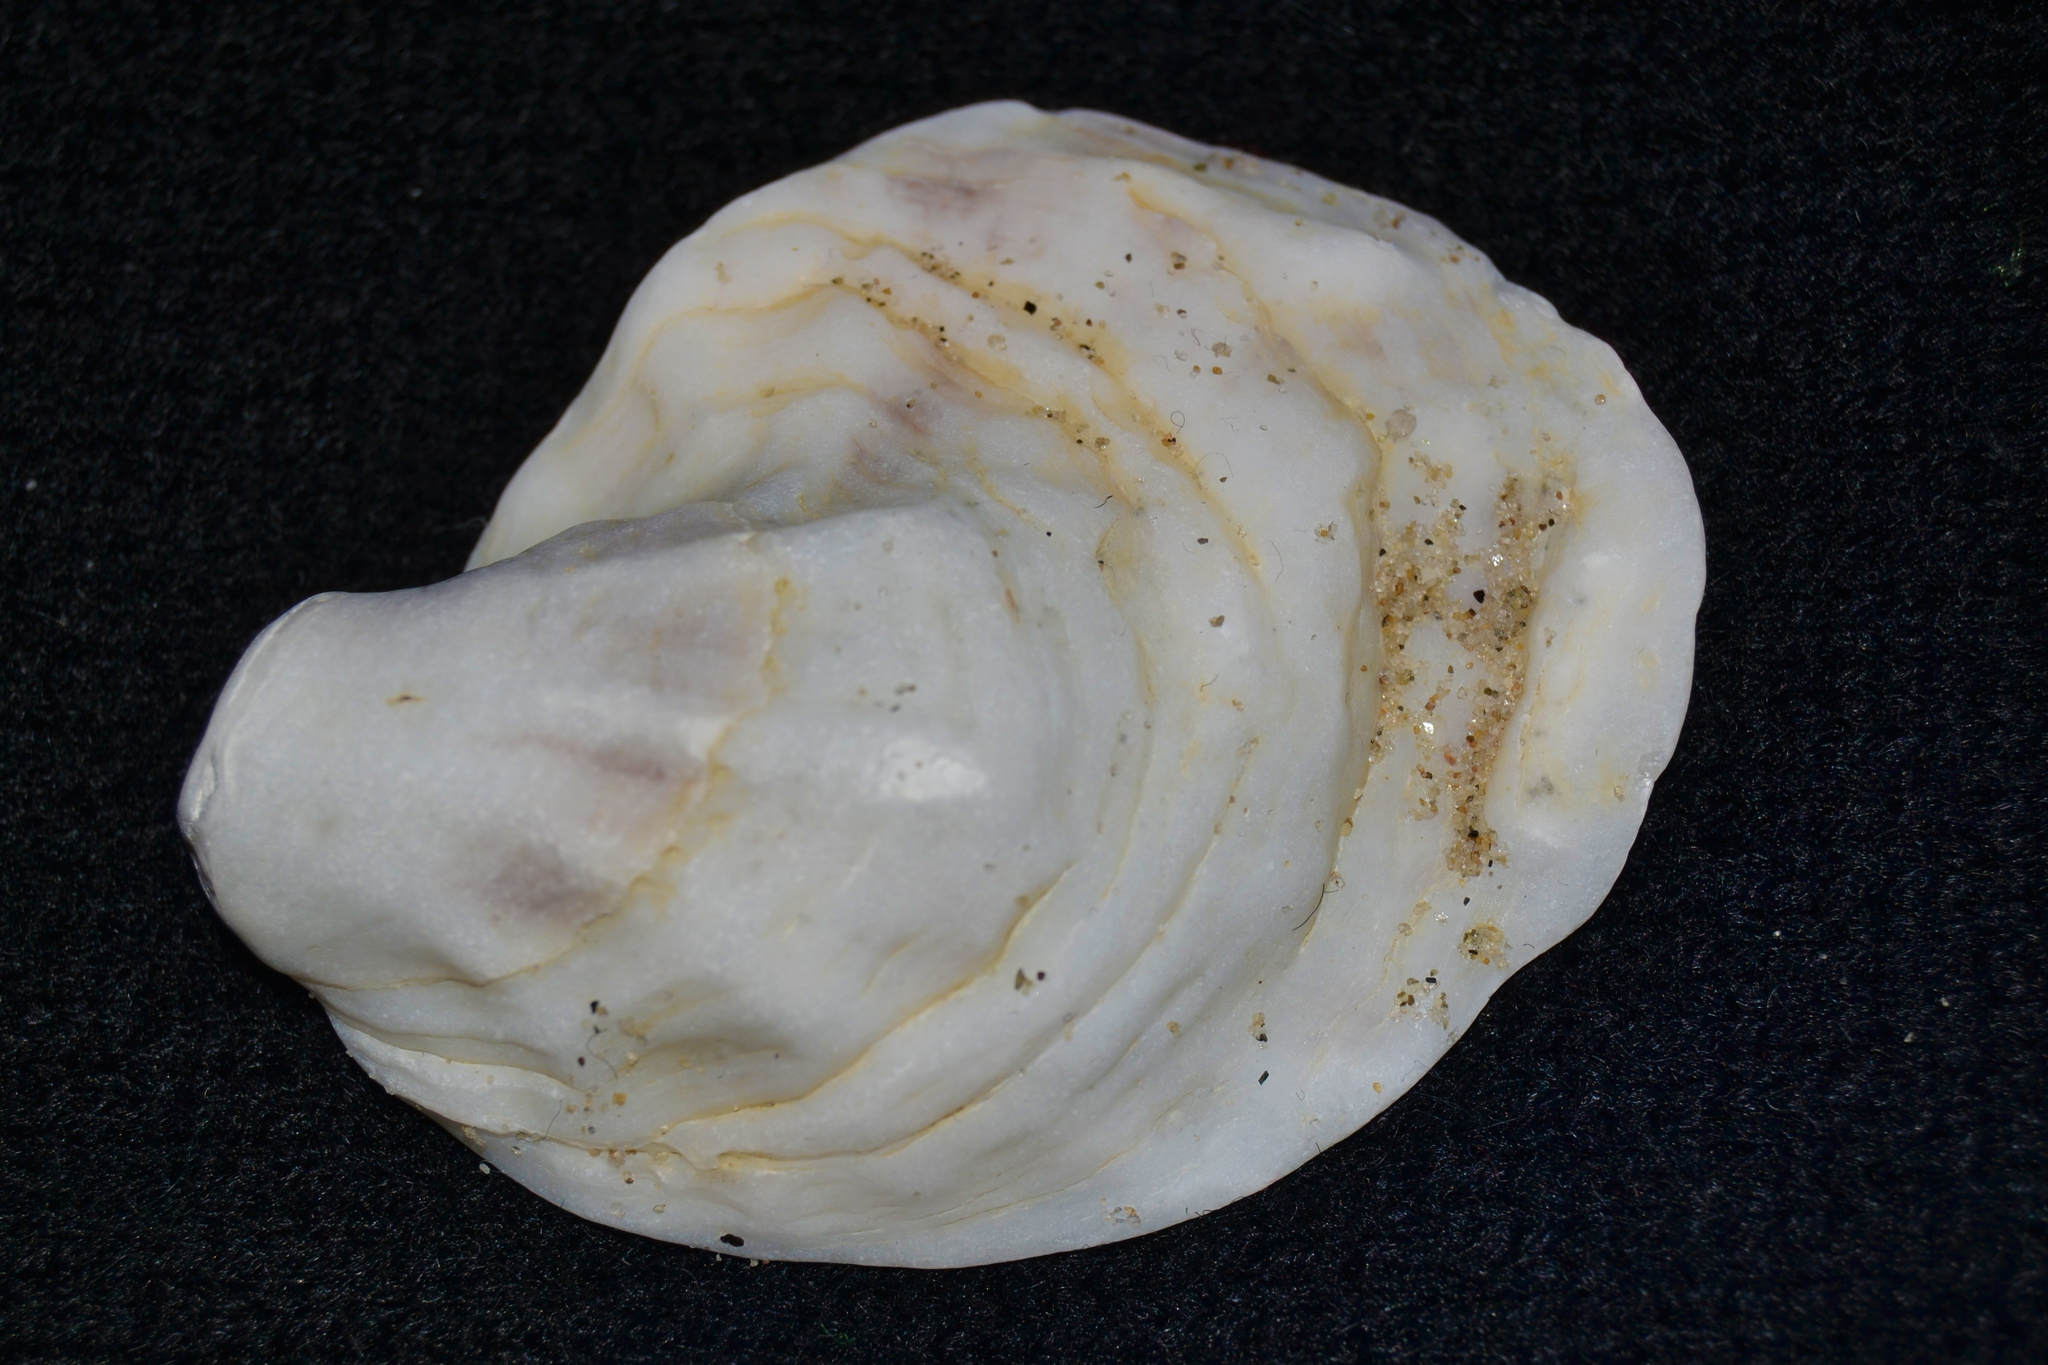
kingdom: Animalia
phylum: Mollusca
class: Bivalvia
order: Ostreida
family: Ostreidae
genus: Crassostrea
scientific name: Crassostrea virginica
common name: American oyster
